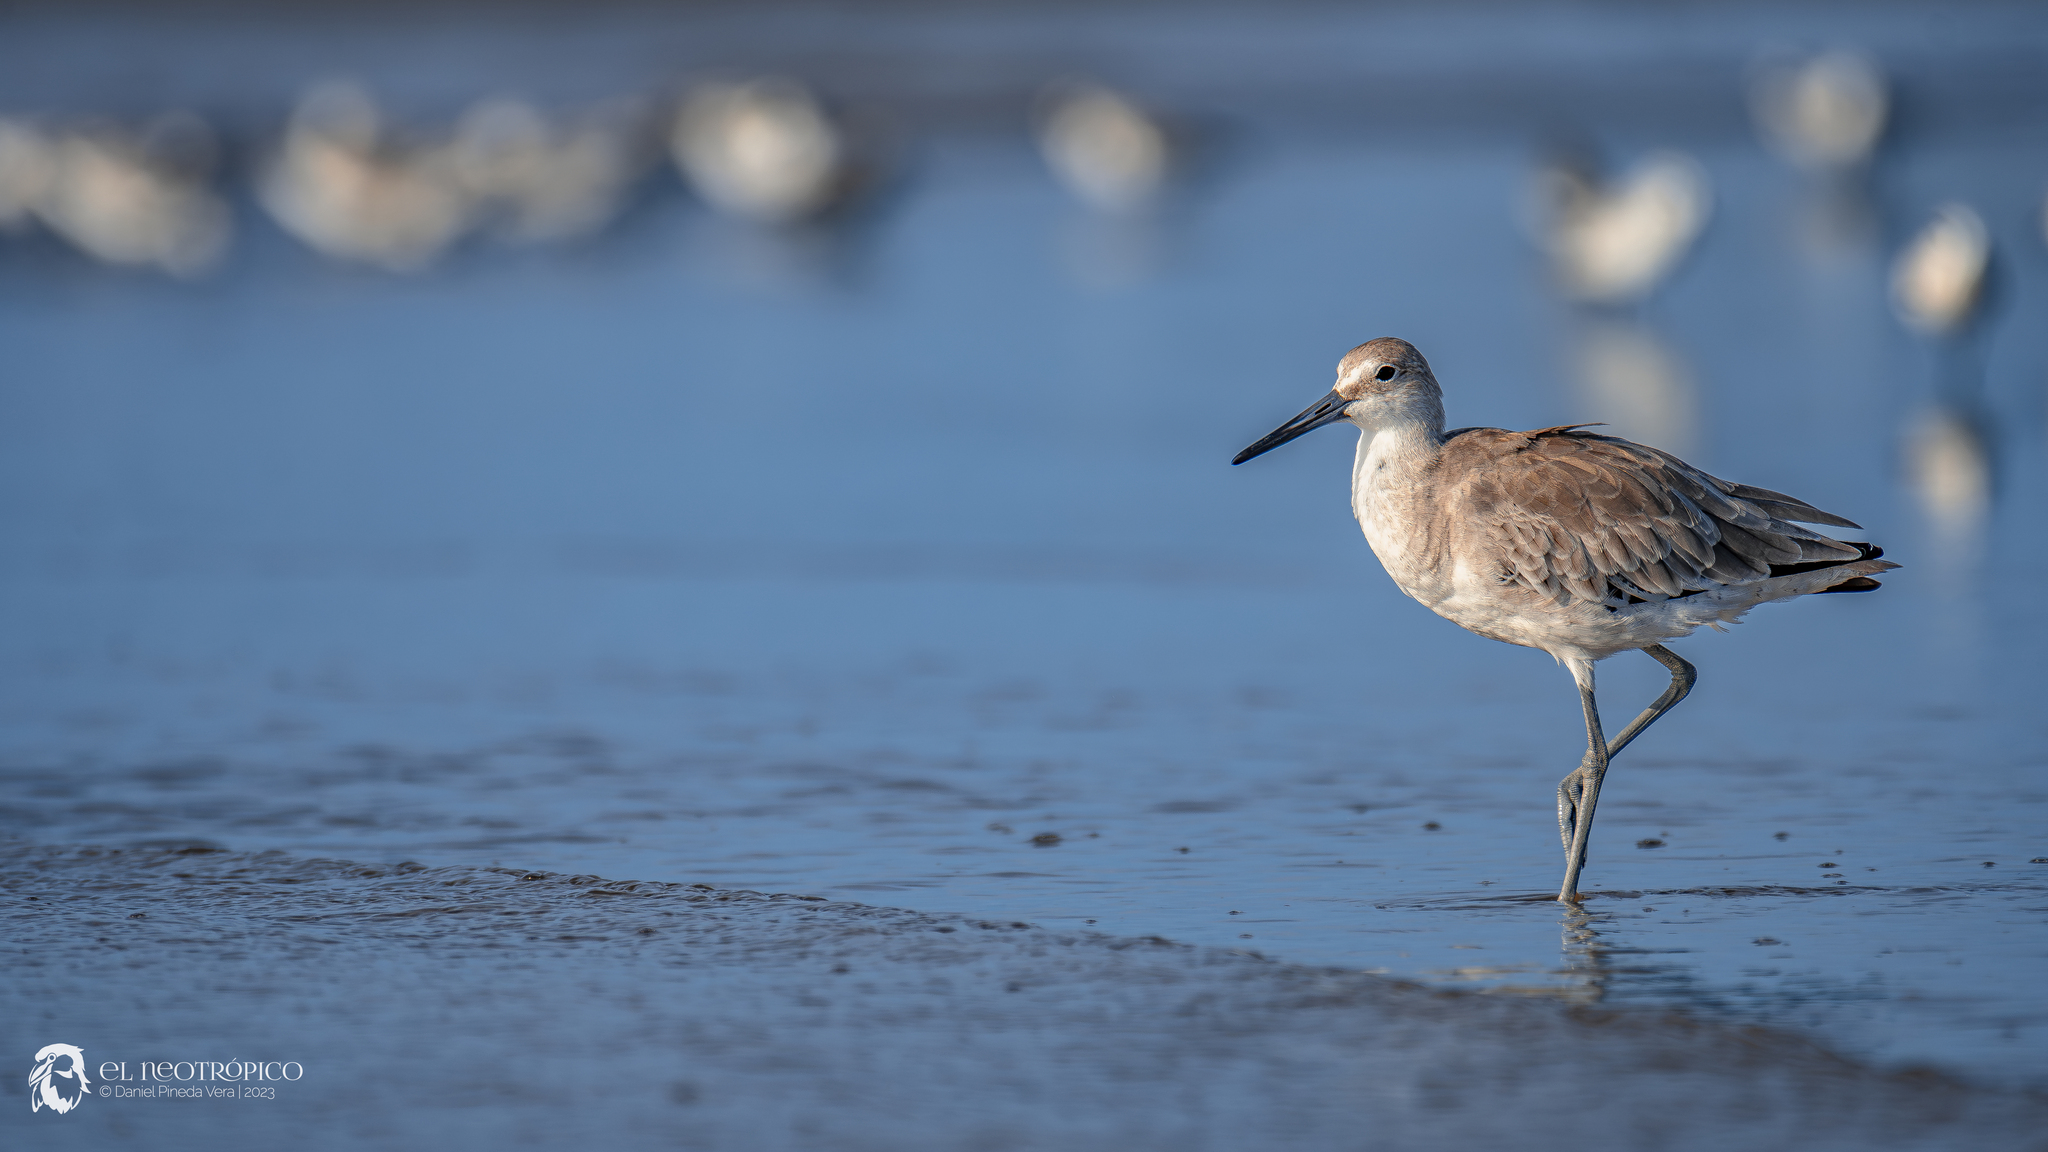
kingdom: Animalia
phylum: Chordata
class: Aves
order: Charadriiformes
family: Scolopacidae
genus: Tringa
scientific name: Tringa semipalmata
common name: Willet
